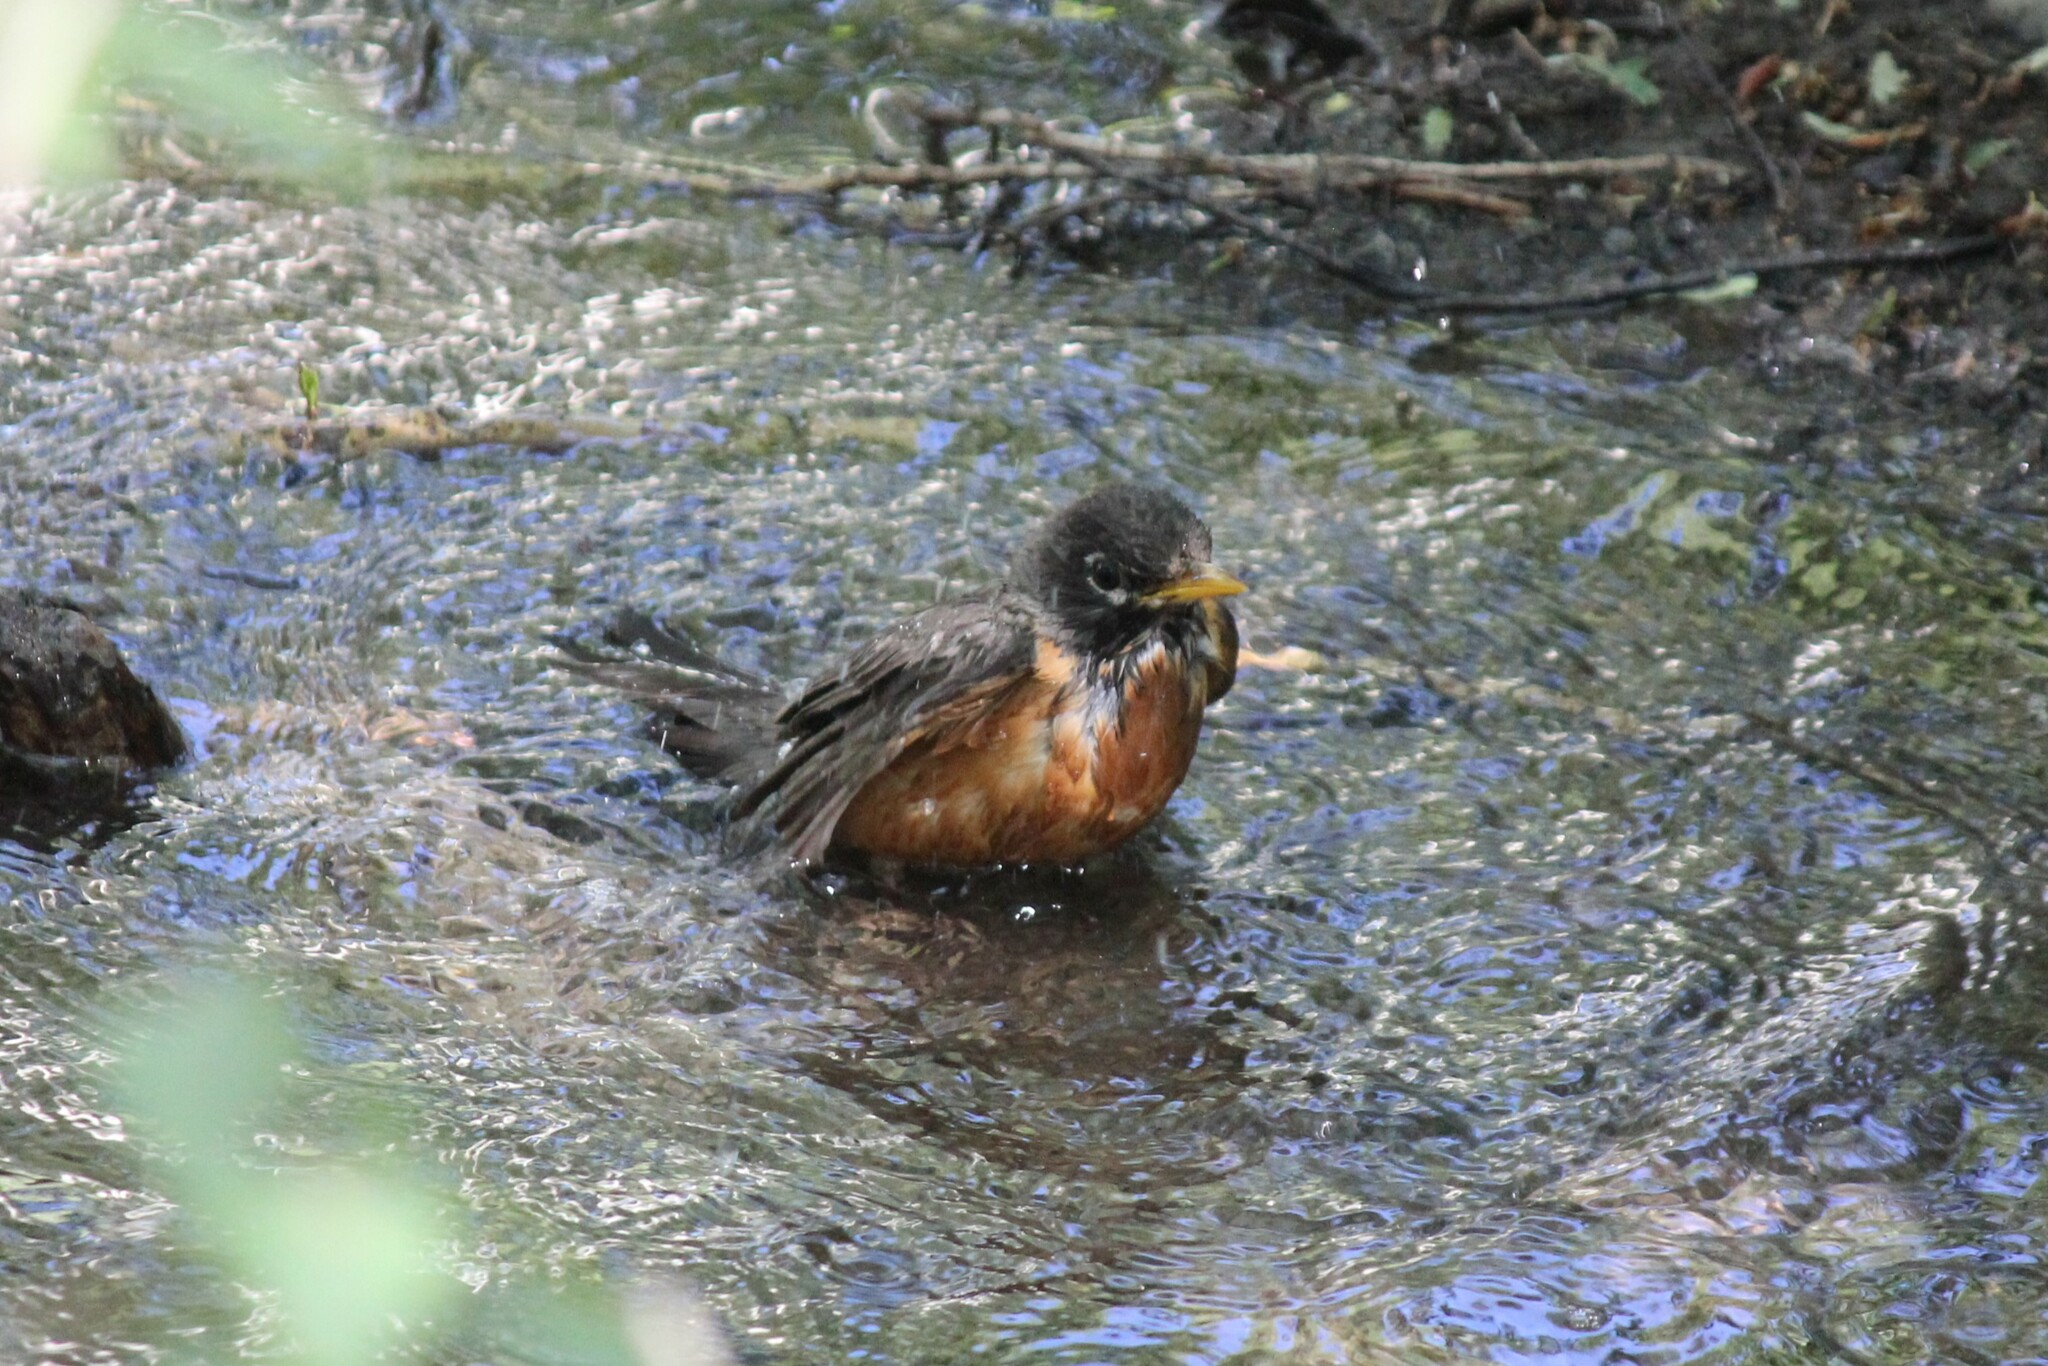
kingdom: Animalia
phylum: Chordata
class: Aves
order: Passeriformes
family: Turdidae
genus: Turdus
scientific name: Turdus migratorius
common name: American robin
